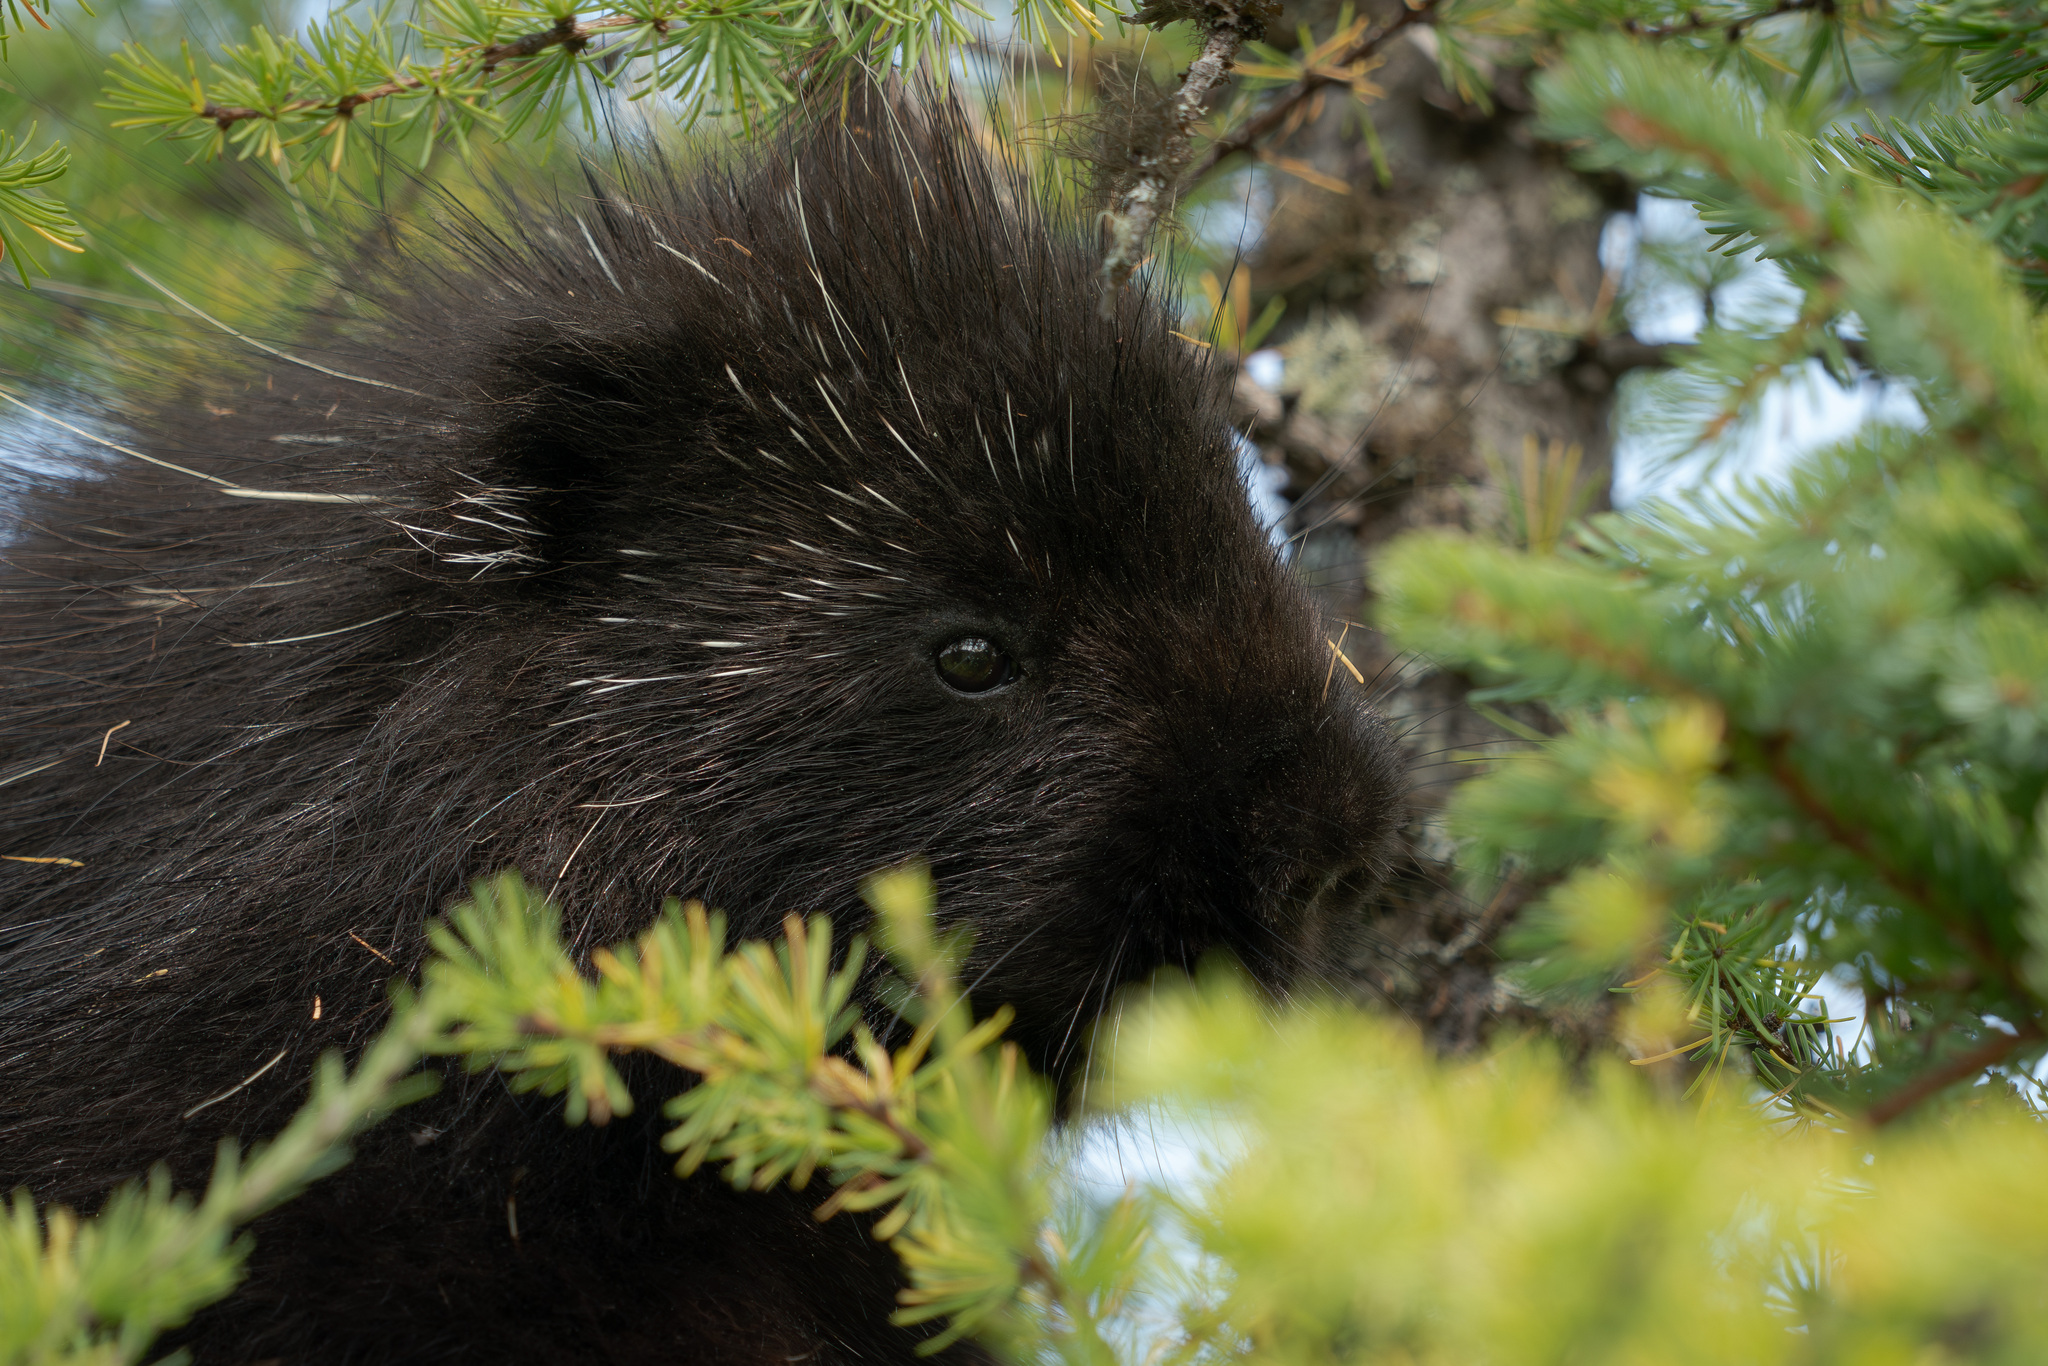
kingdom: Animalia
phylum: Chordata
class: Mammalia
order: Rodentia
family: Erethizontidae
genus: Erethizon
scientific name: Erethizon dorsatus
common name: North american porcupine
